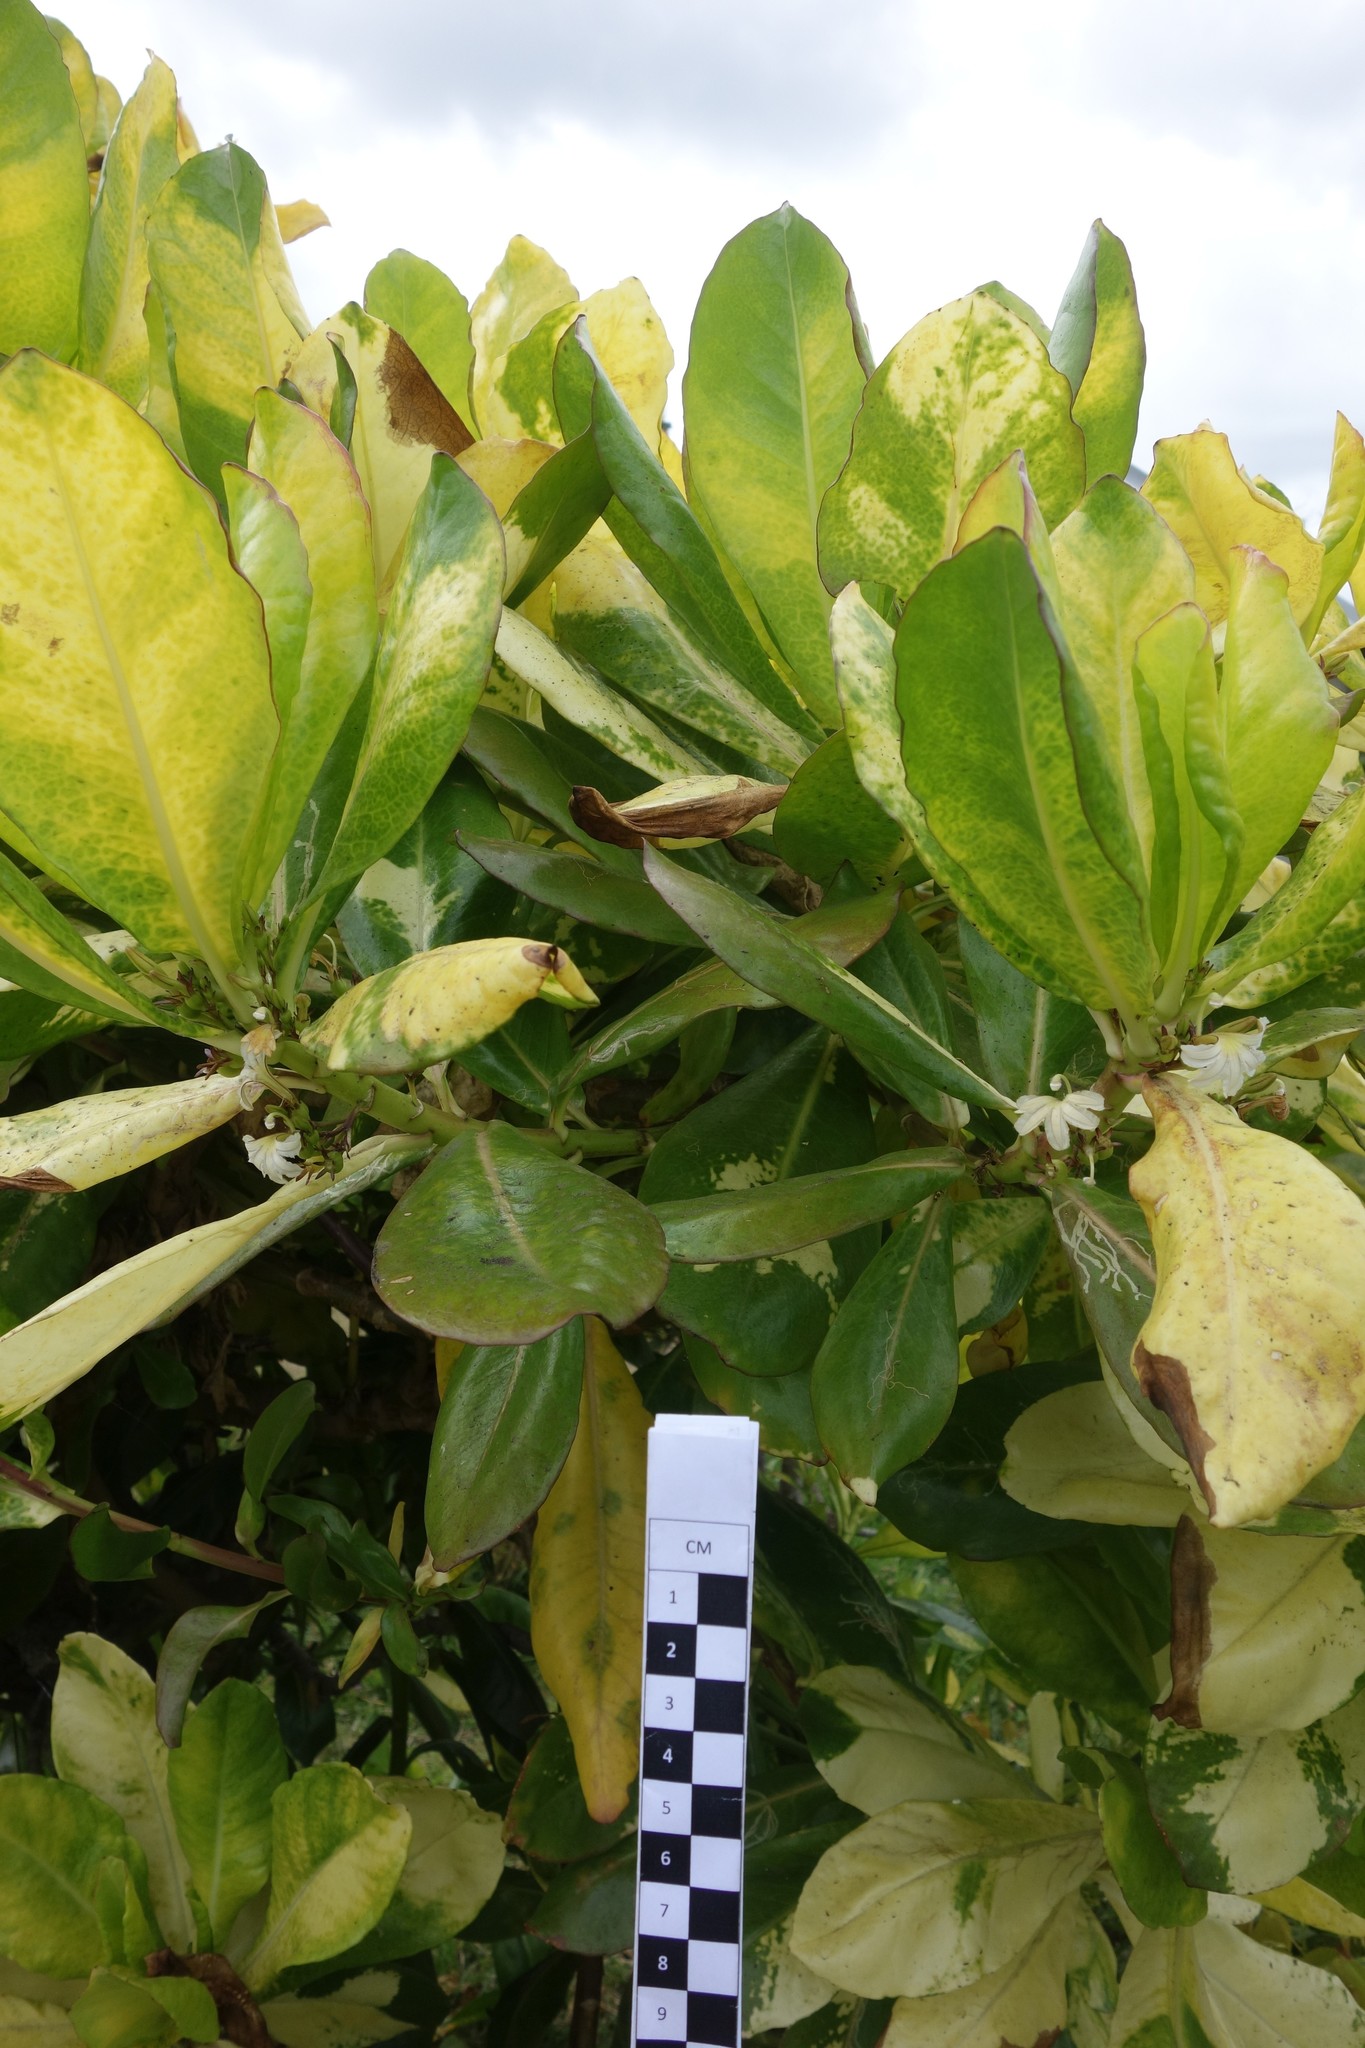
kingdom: Plantae
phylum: Tracheophyta
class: Magnoliopsida
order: Asterales
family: Goodeniaceae
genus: Scaevola
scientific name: Scaevola taccada
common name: Sea lettucetree
